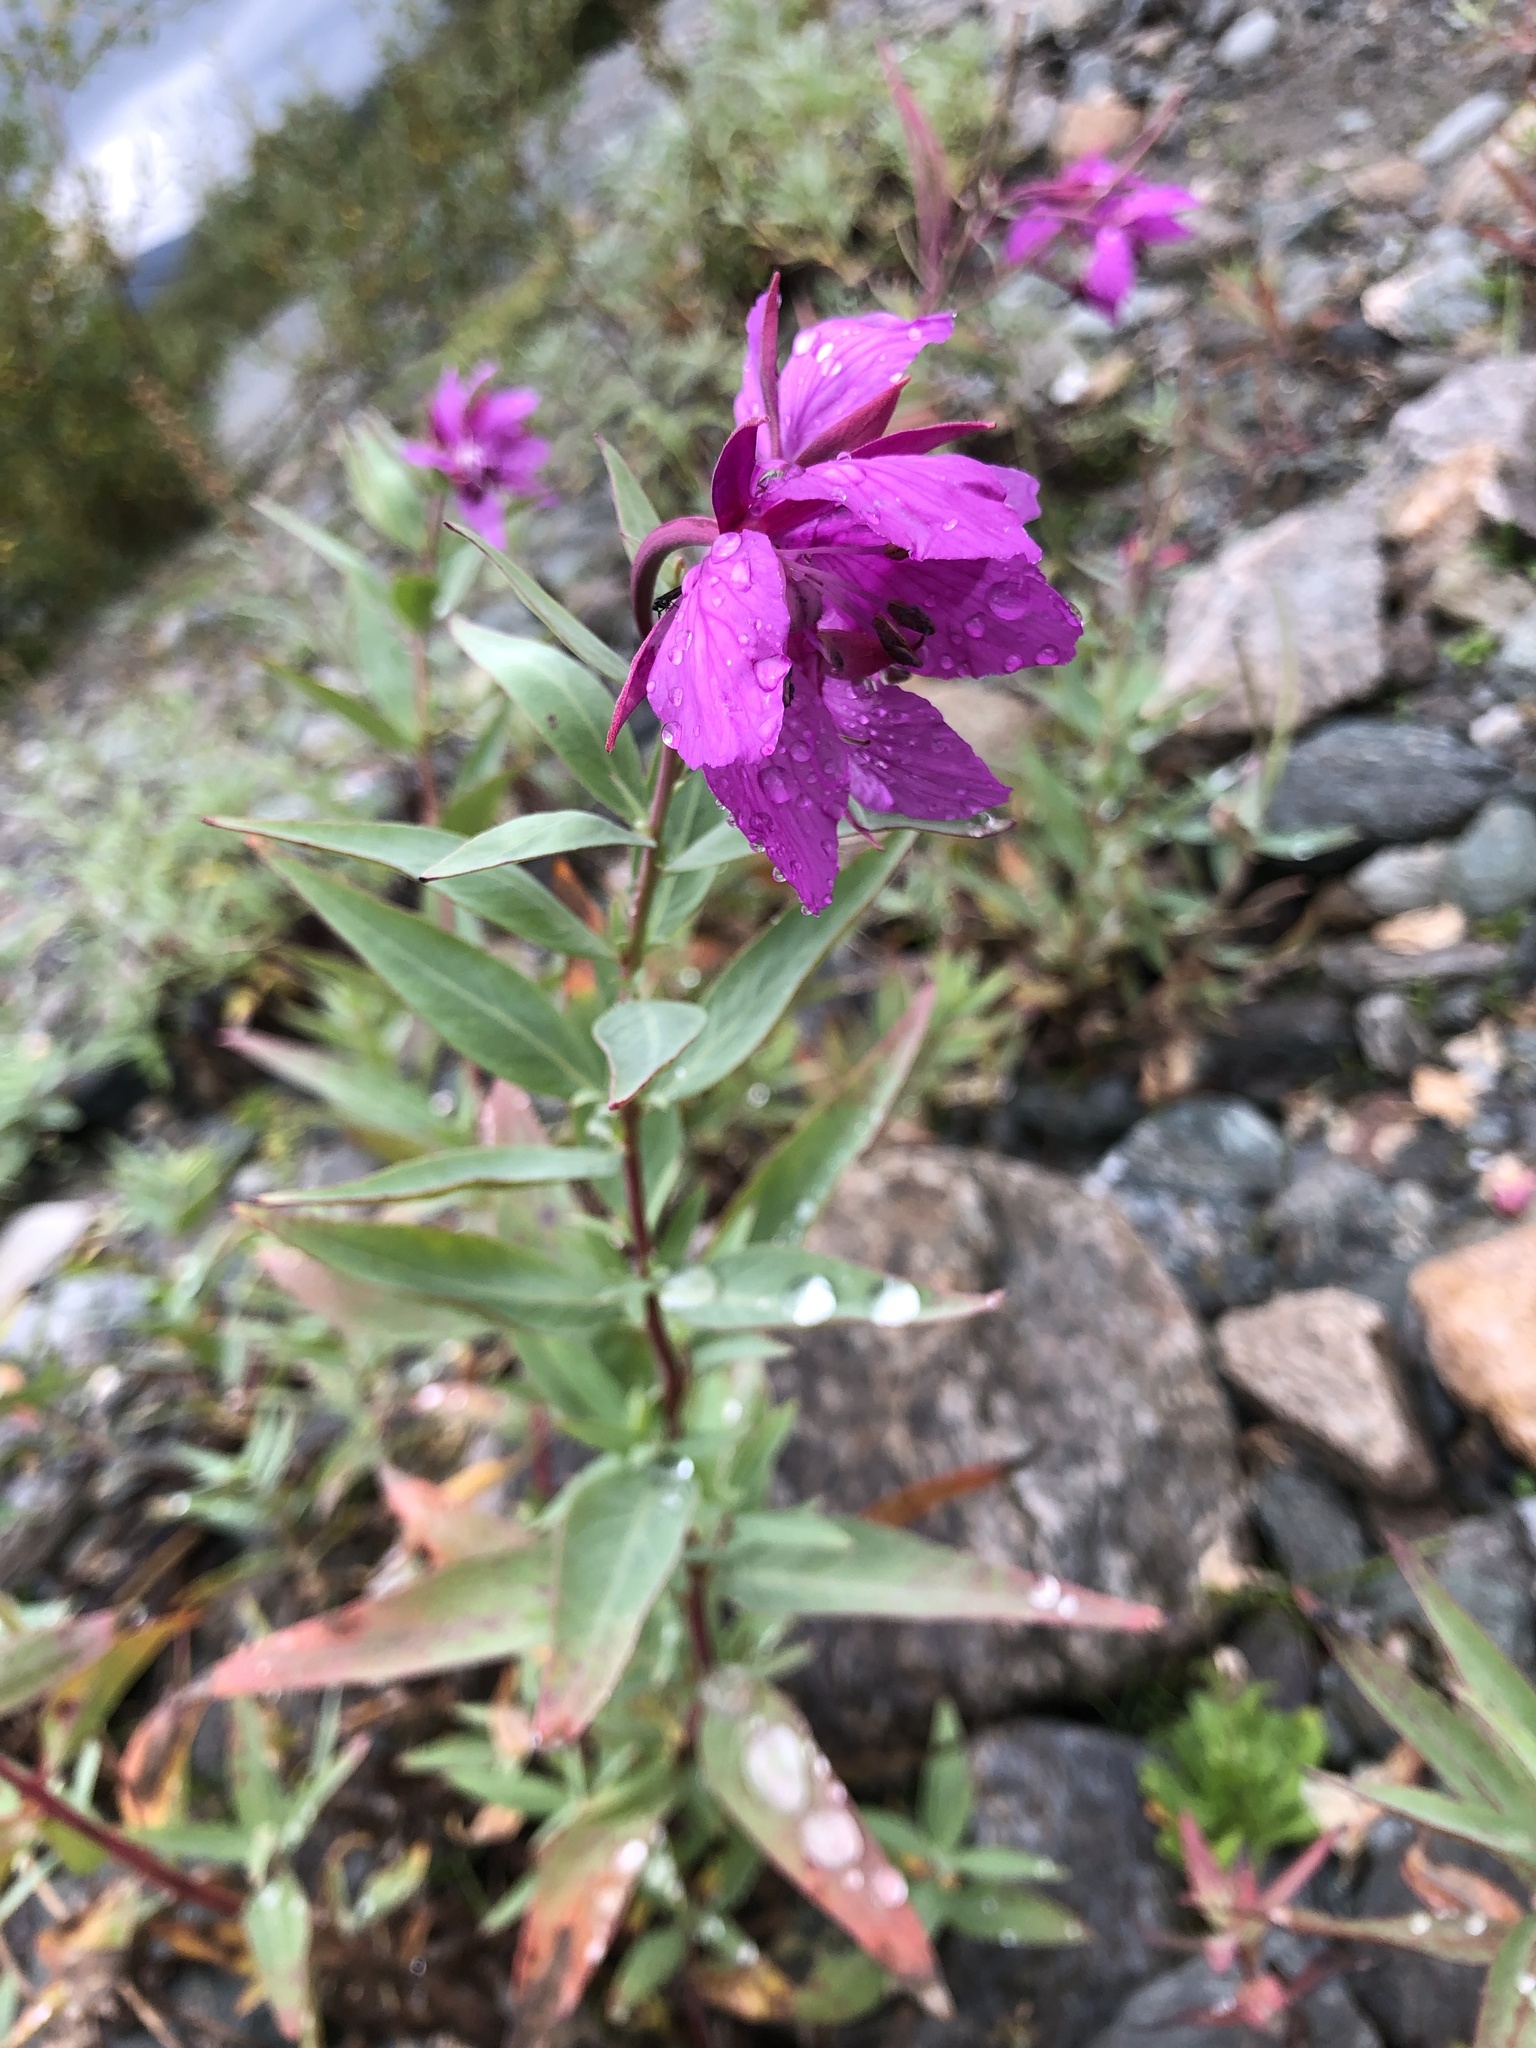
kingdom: Plantae
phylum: Tracheophyta
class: Magnoliopsida
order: Myrtales
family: Onagraceae
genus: Chamaenerion
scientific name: Chamaenerion latifolium
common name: Dwarf fireweed
